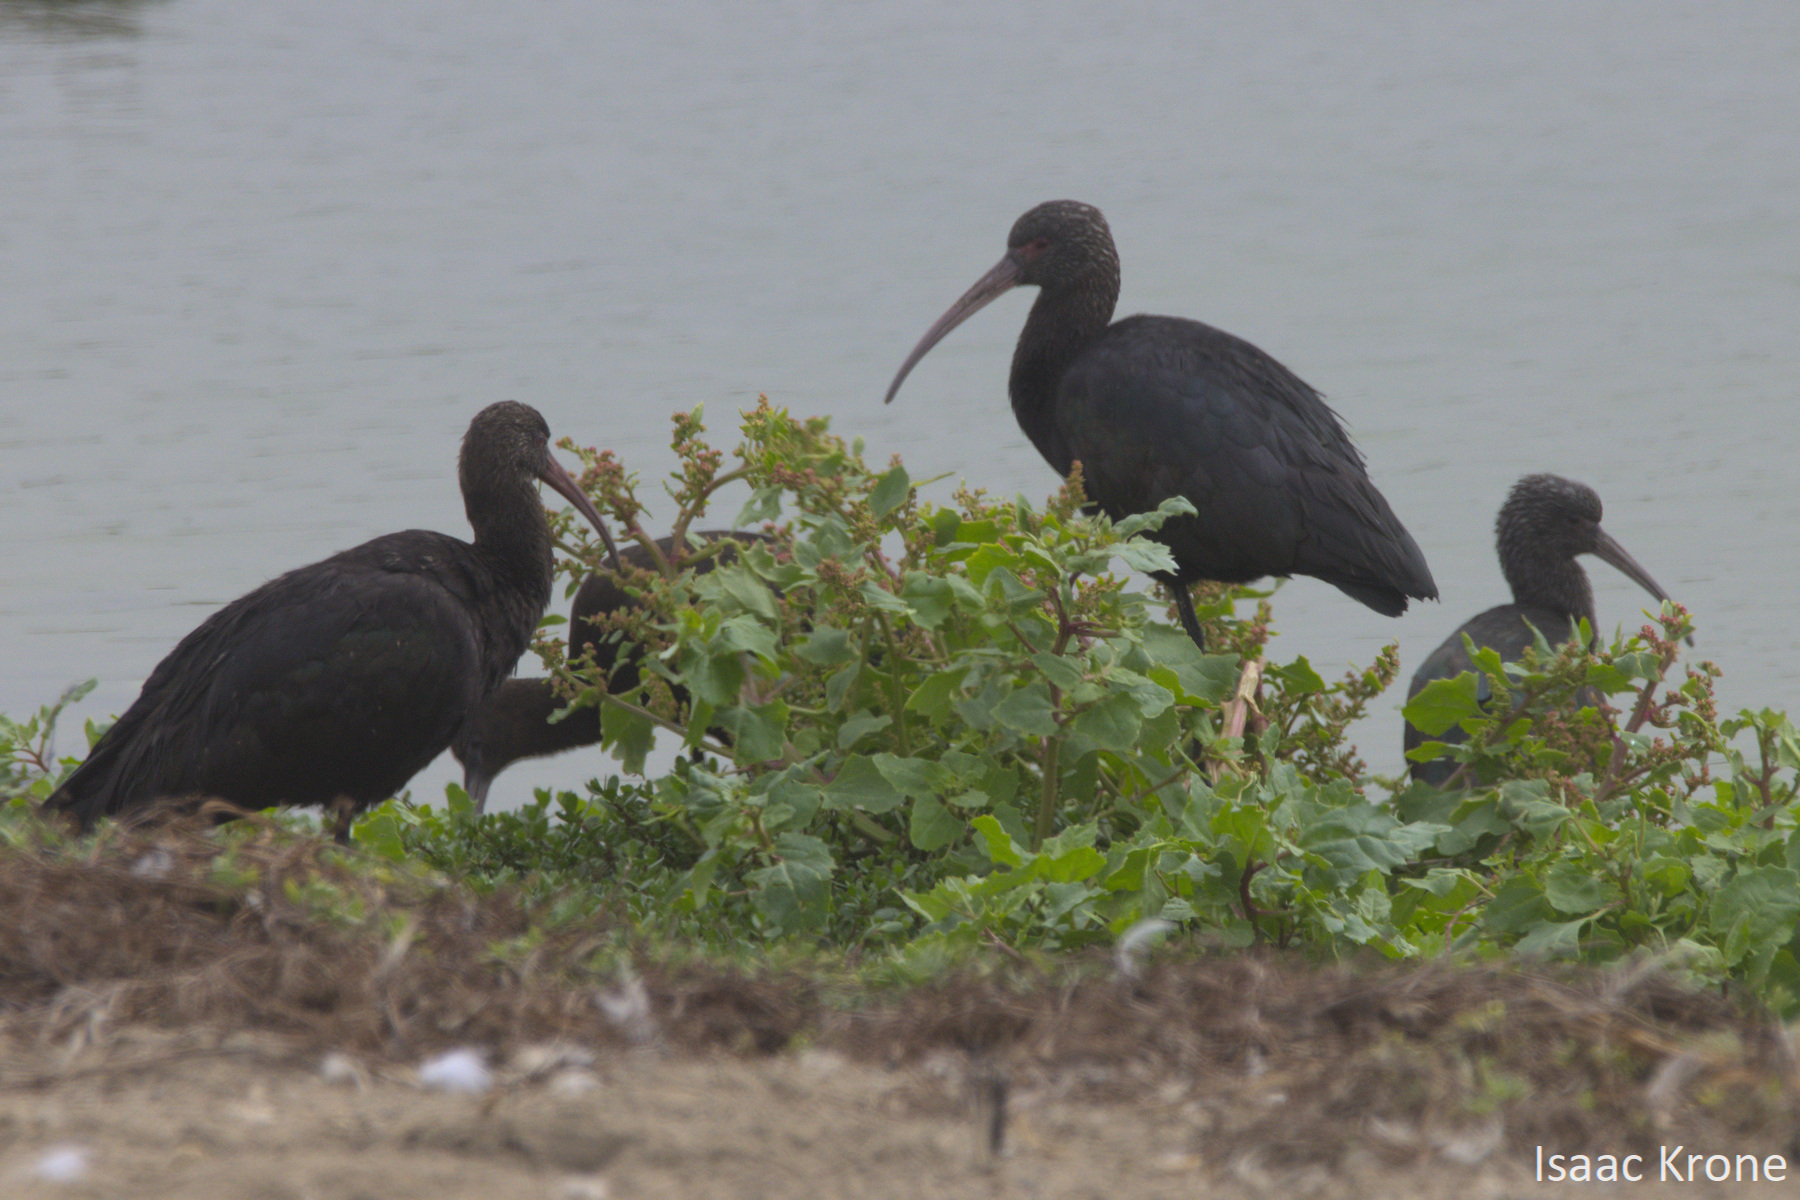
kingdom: Animalia
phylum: Chordata
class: Aves
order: Pelecaniformes
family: Threskiornithidae
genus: Plegadis
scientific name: Plegadis ridgwayi
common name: Puna ibis
